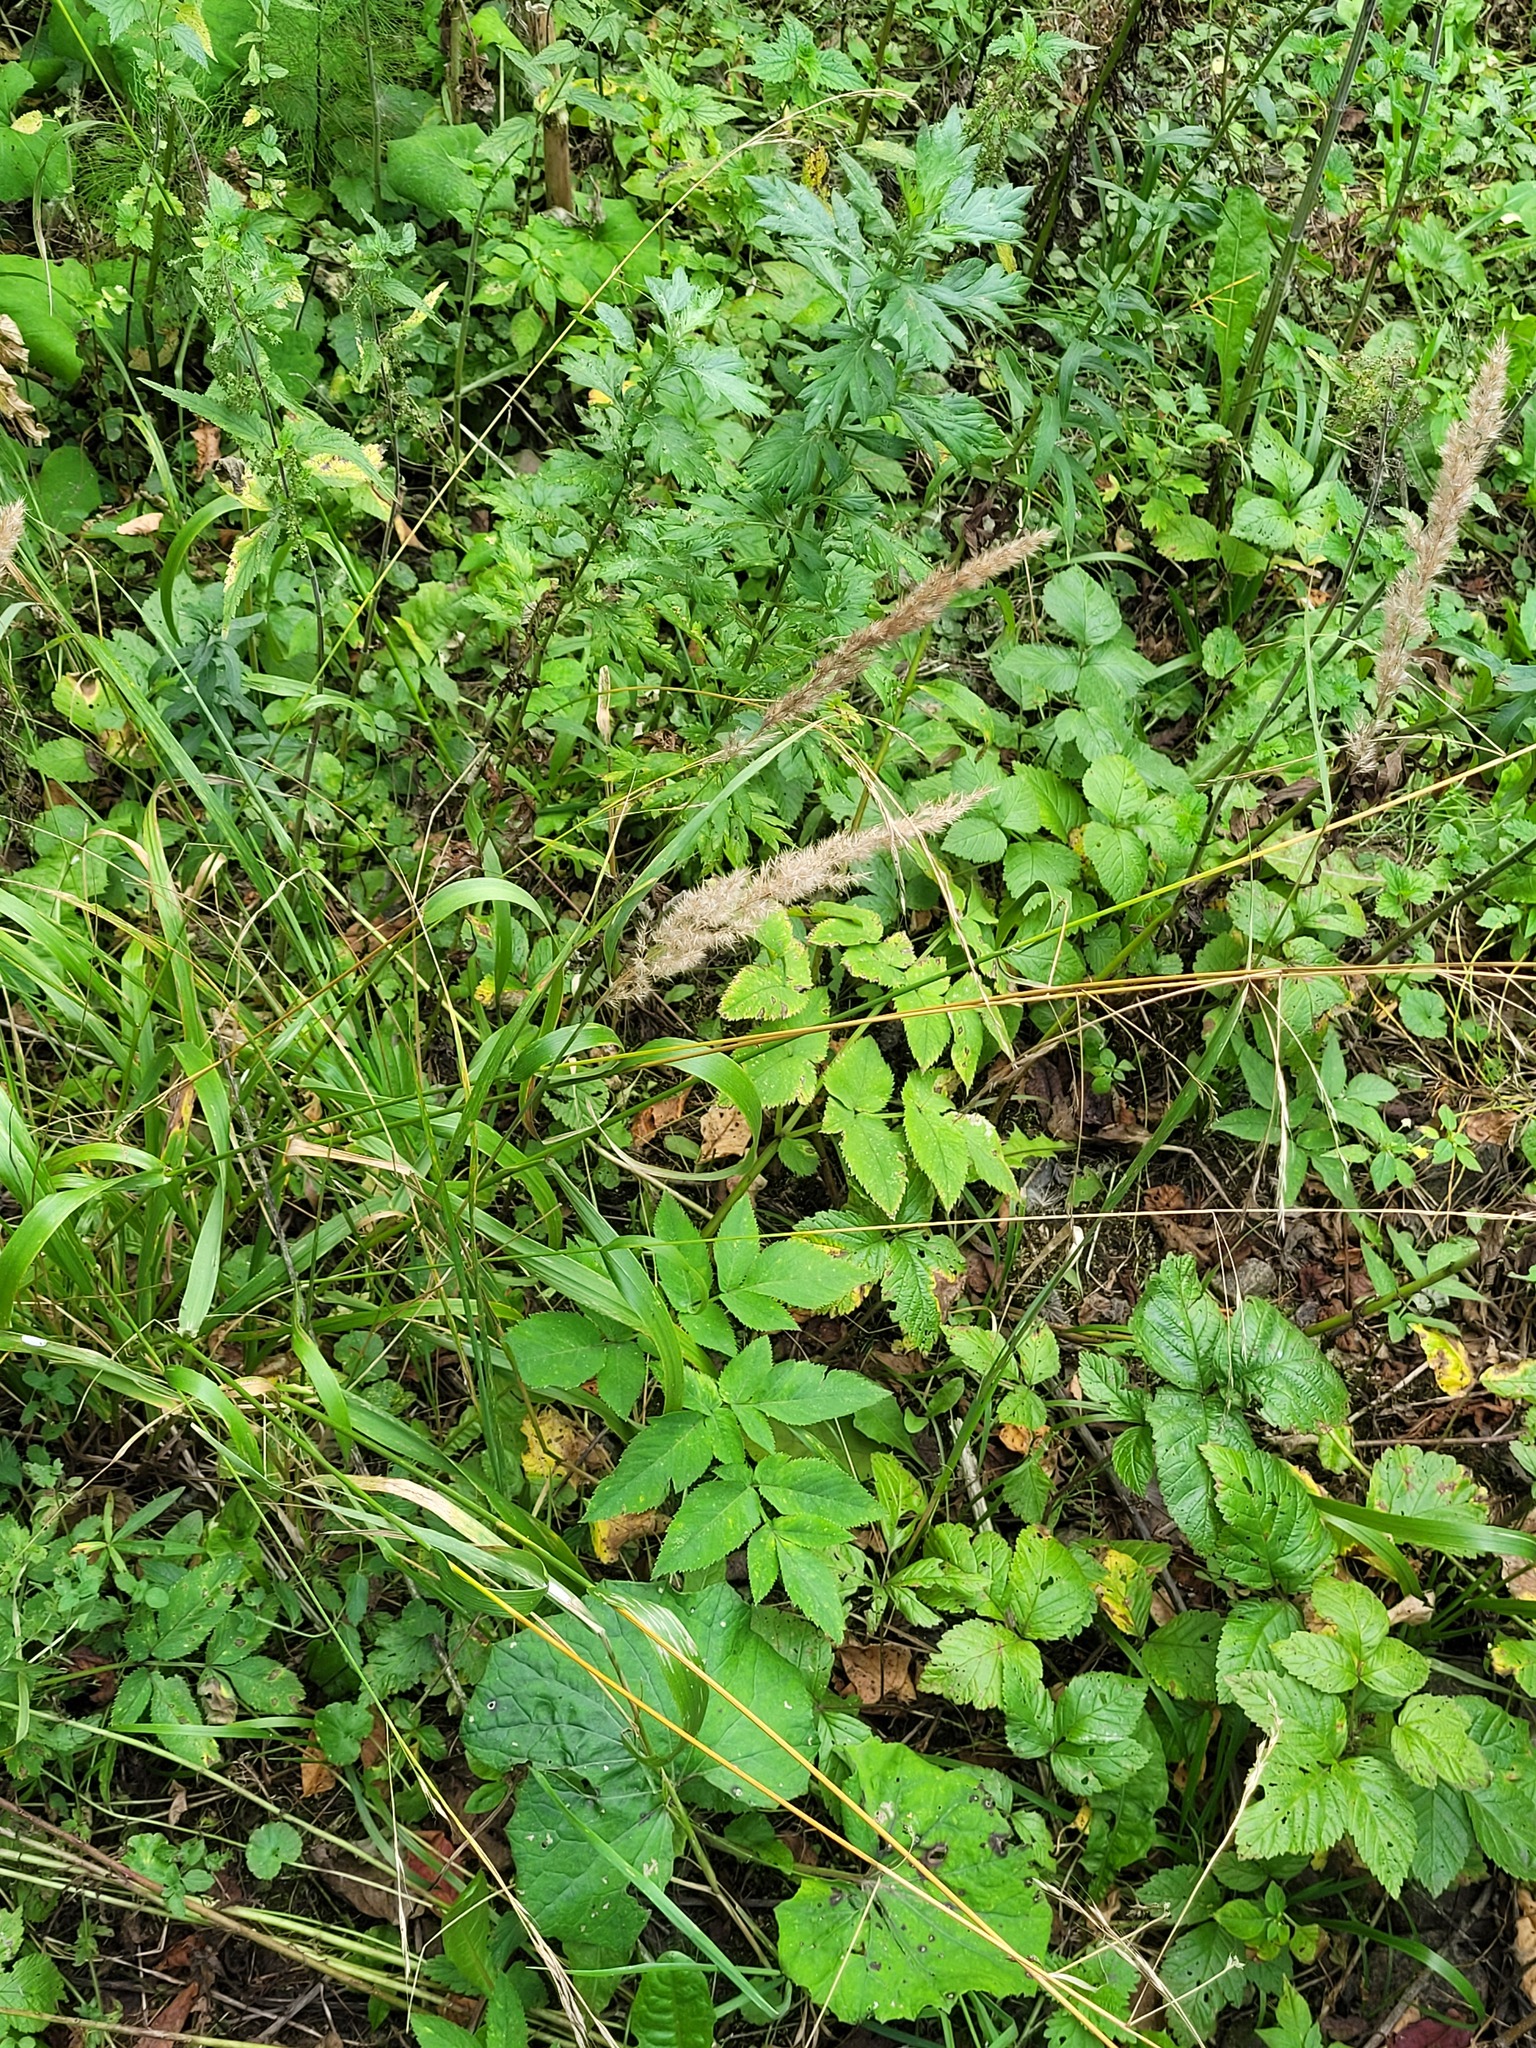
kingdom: Plantae
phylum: Tracheophyta
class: Magnoliopsida
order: Apiales
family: Apiaceae
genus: Angelica
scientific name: Angelica sylvestris
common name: Wild angelica
